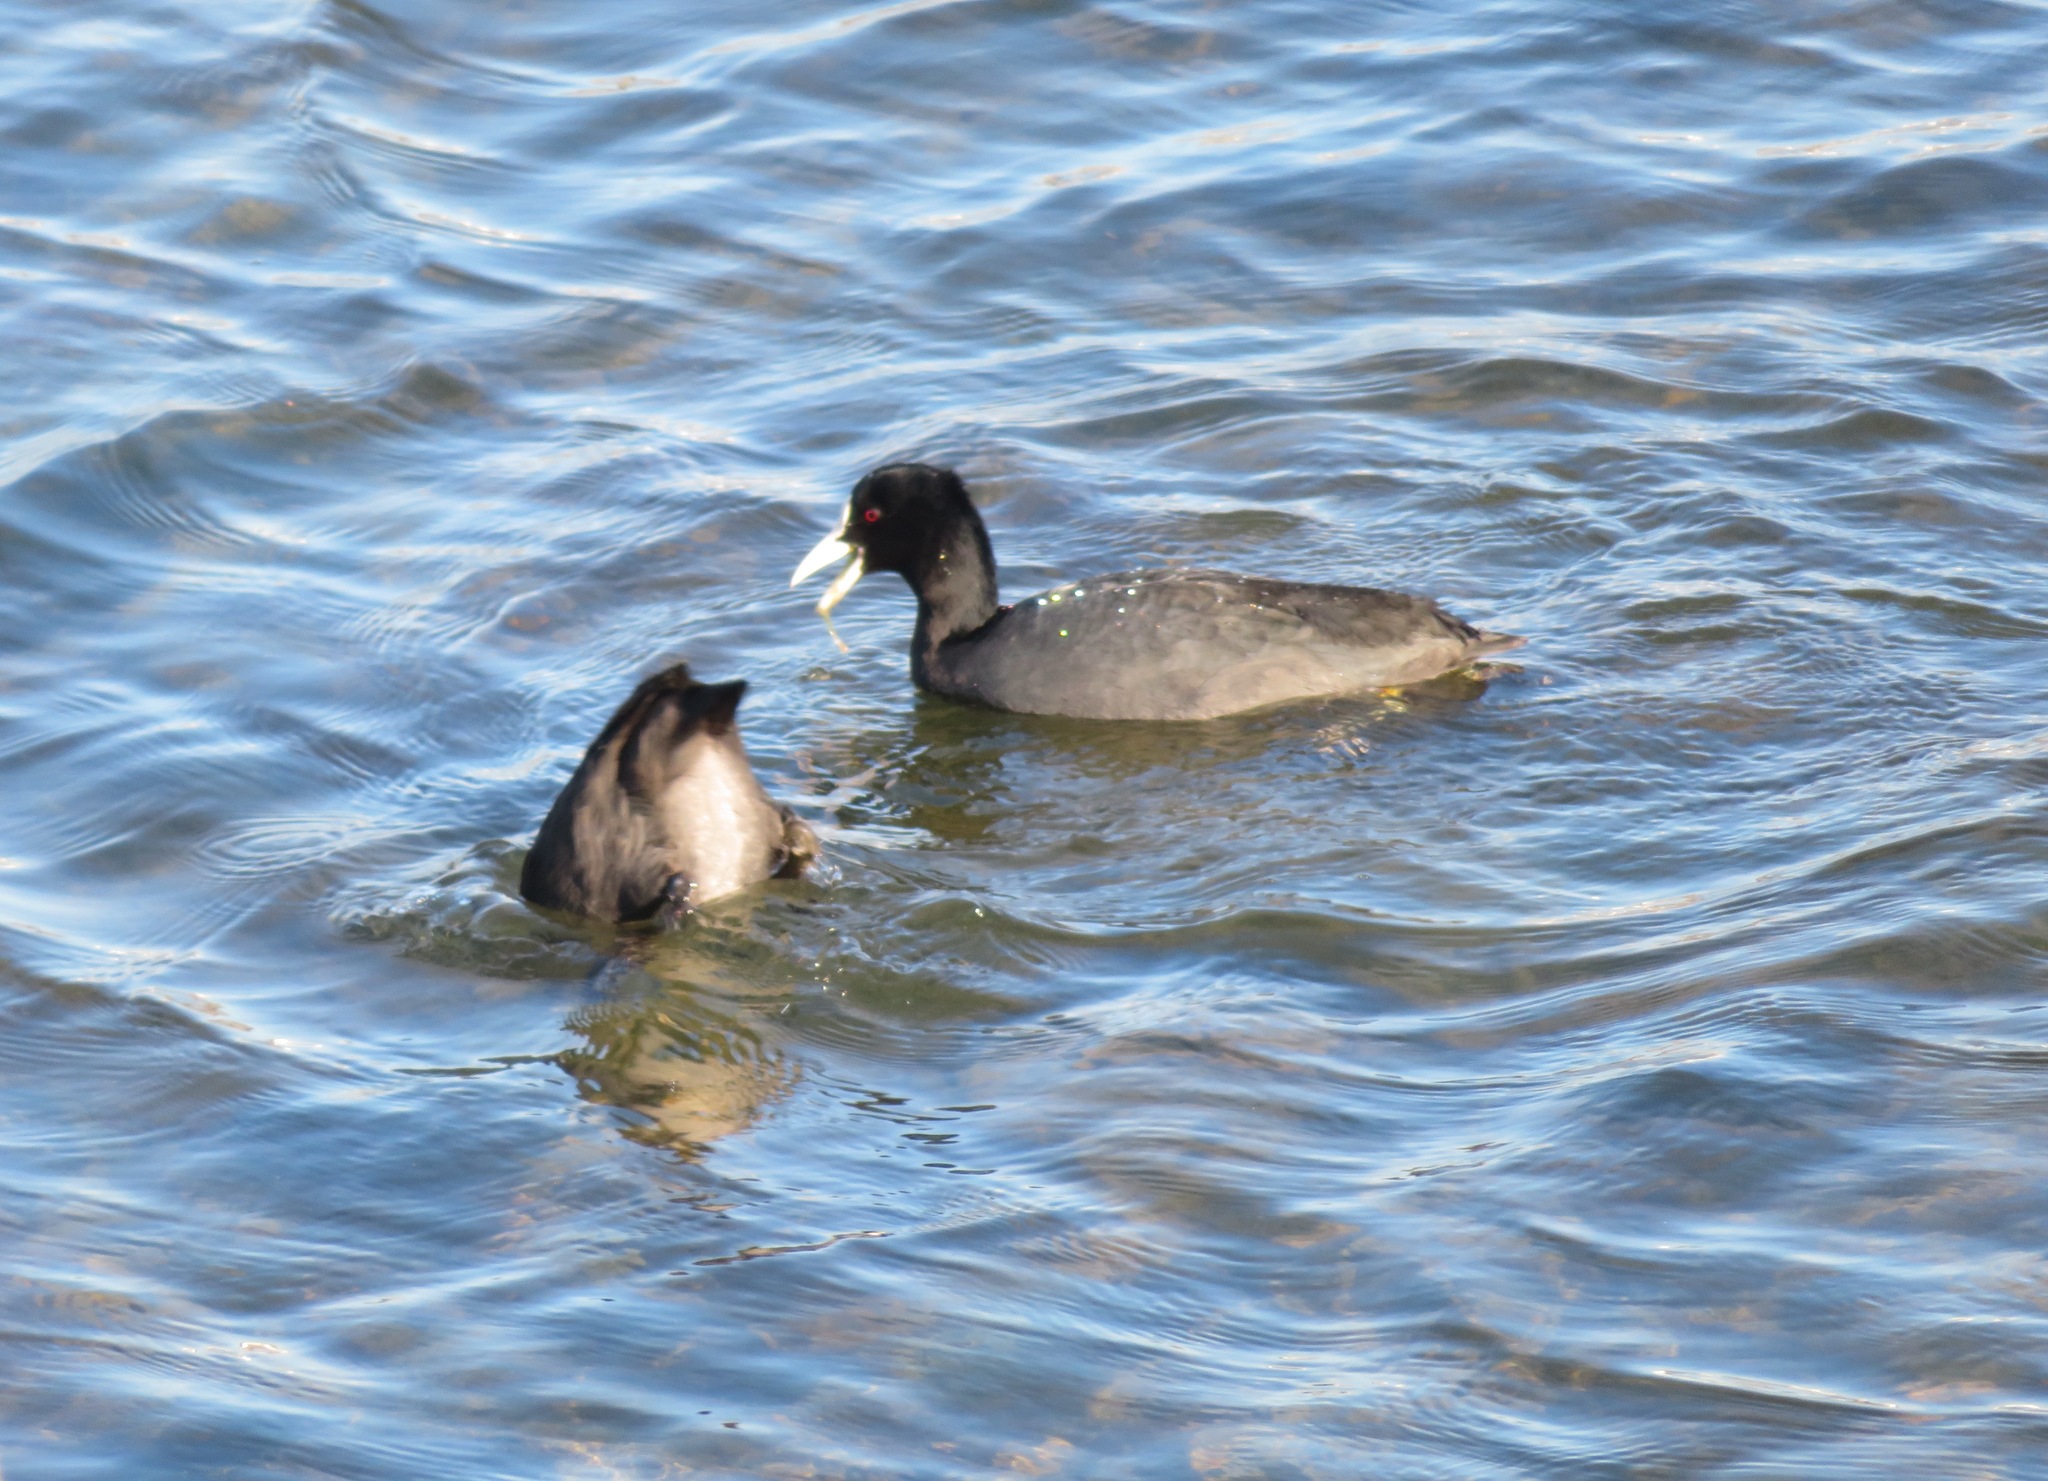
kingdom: Animalia
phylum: Chordata
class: Aves
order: Gruiformes
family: Rallidae
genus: Fulica
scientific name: Fulica atra
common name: Eurasian coot
